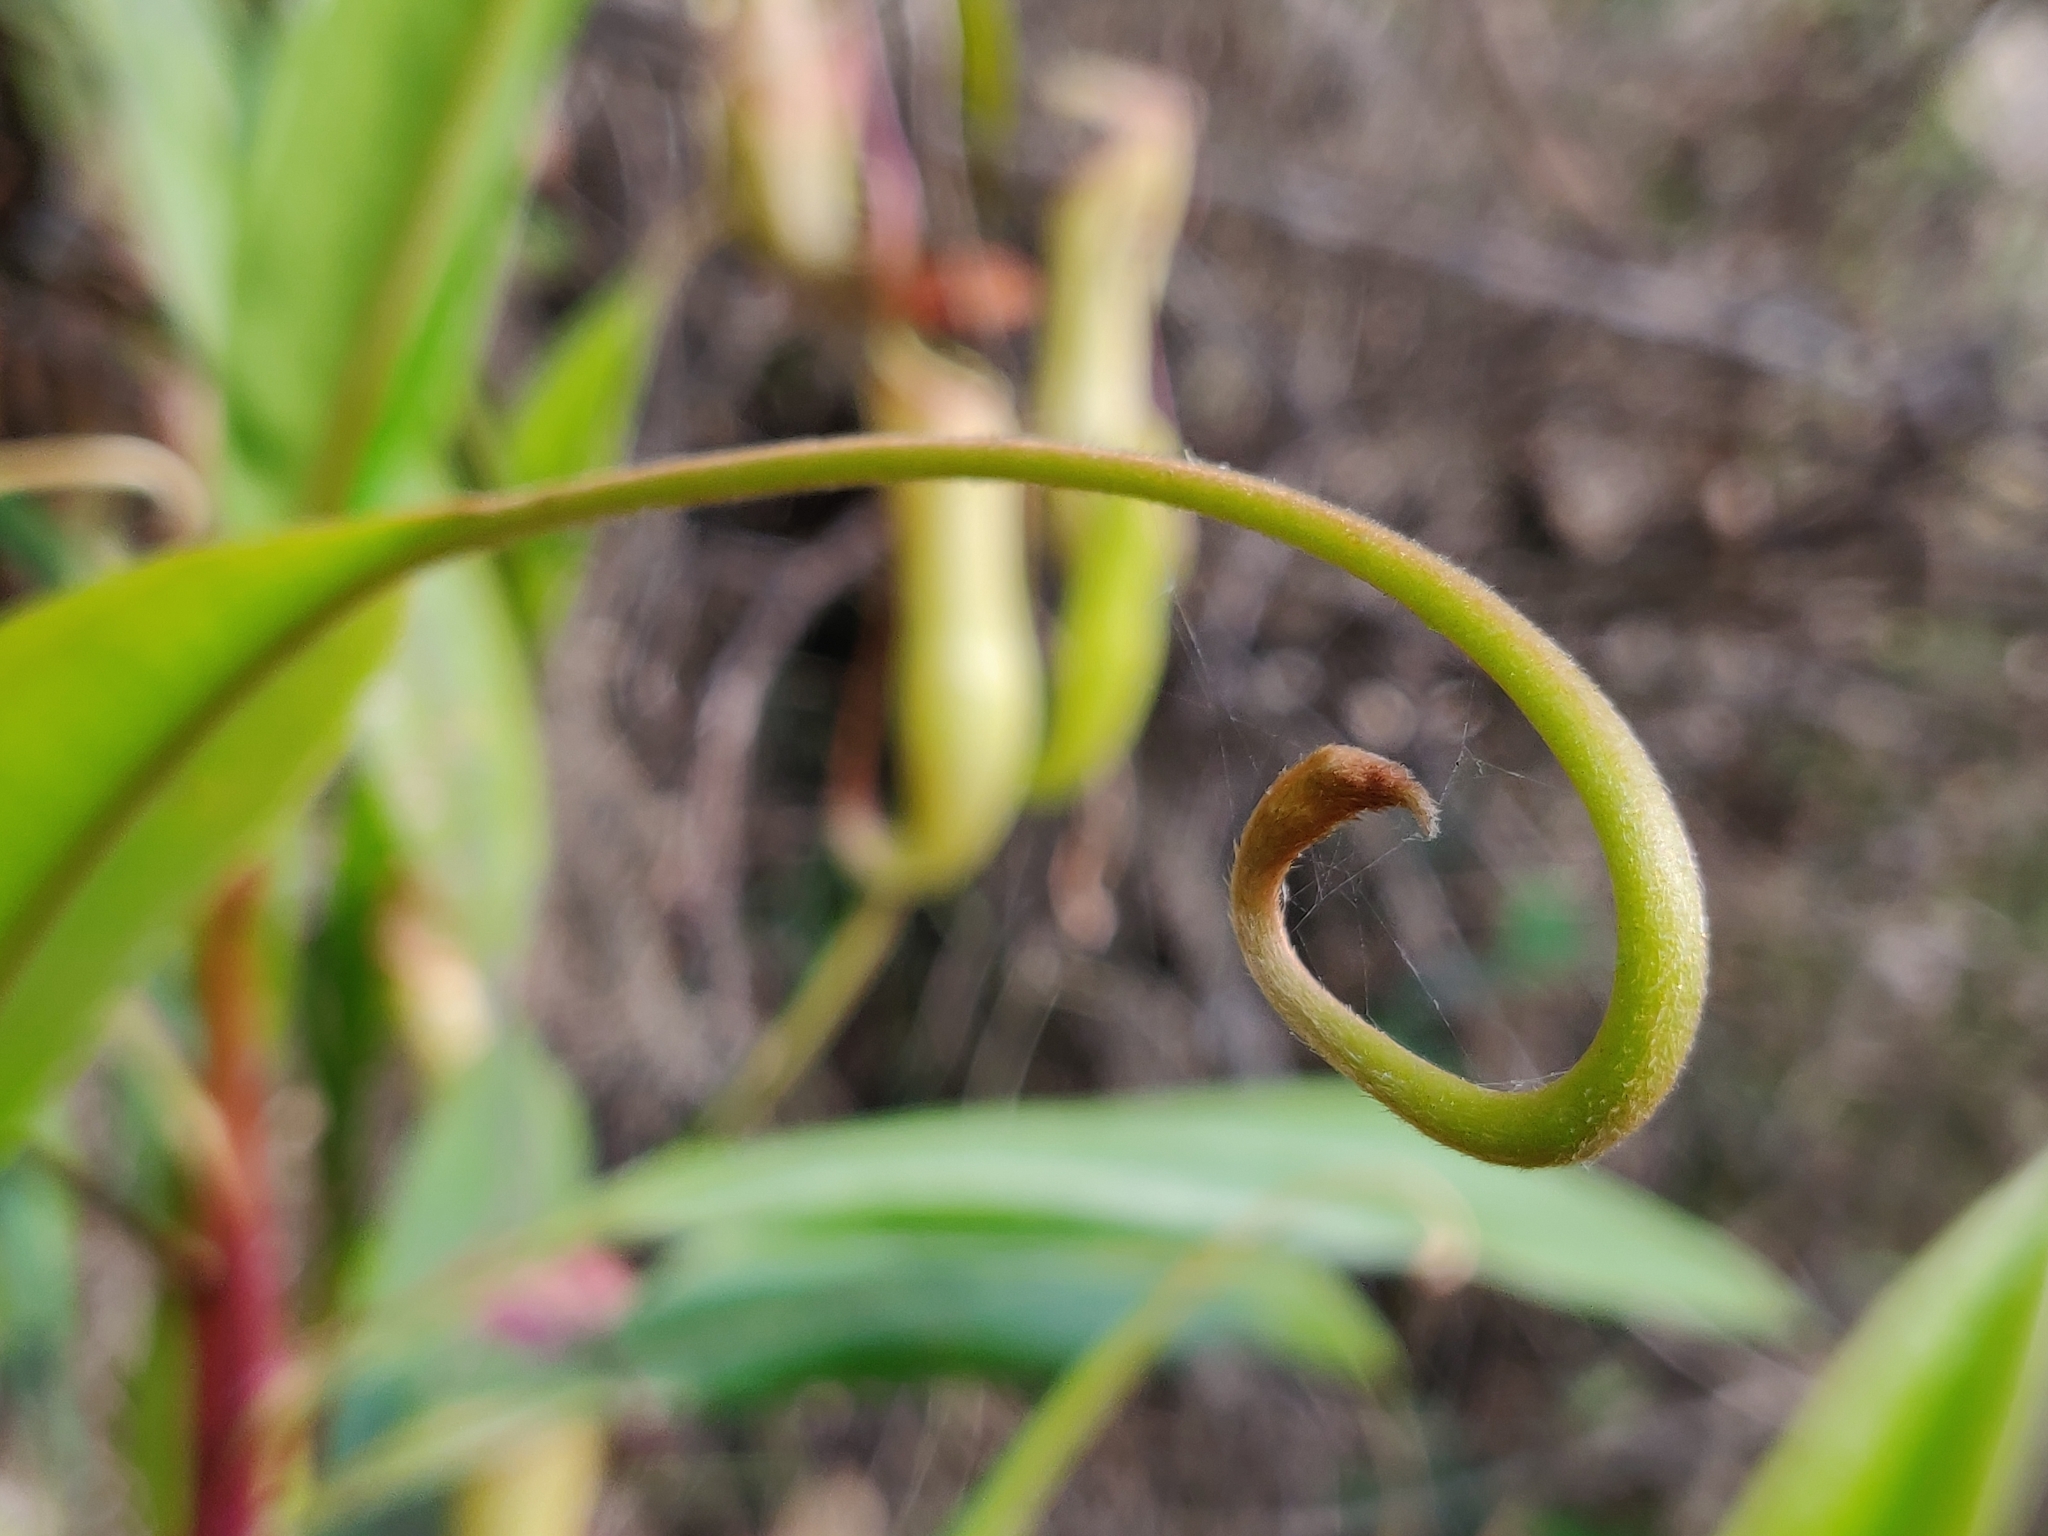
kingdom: Plantae
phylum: Tracheophyta
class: Magnoliopsida
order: Caryophyllales
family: Nepenthaceae
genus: Nepenthes
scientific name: Nepenthes khasiana
